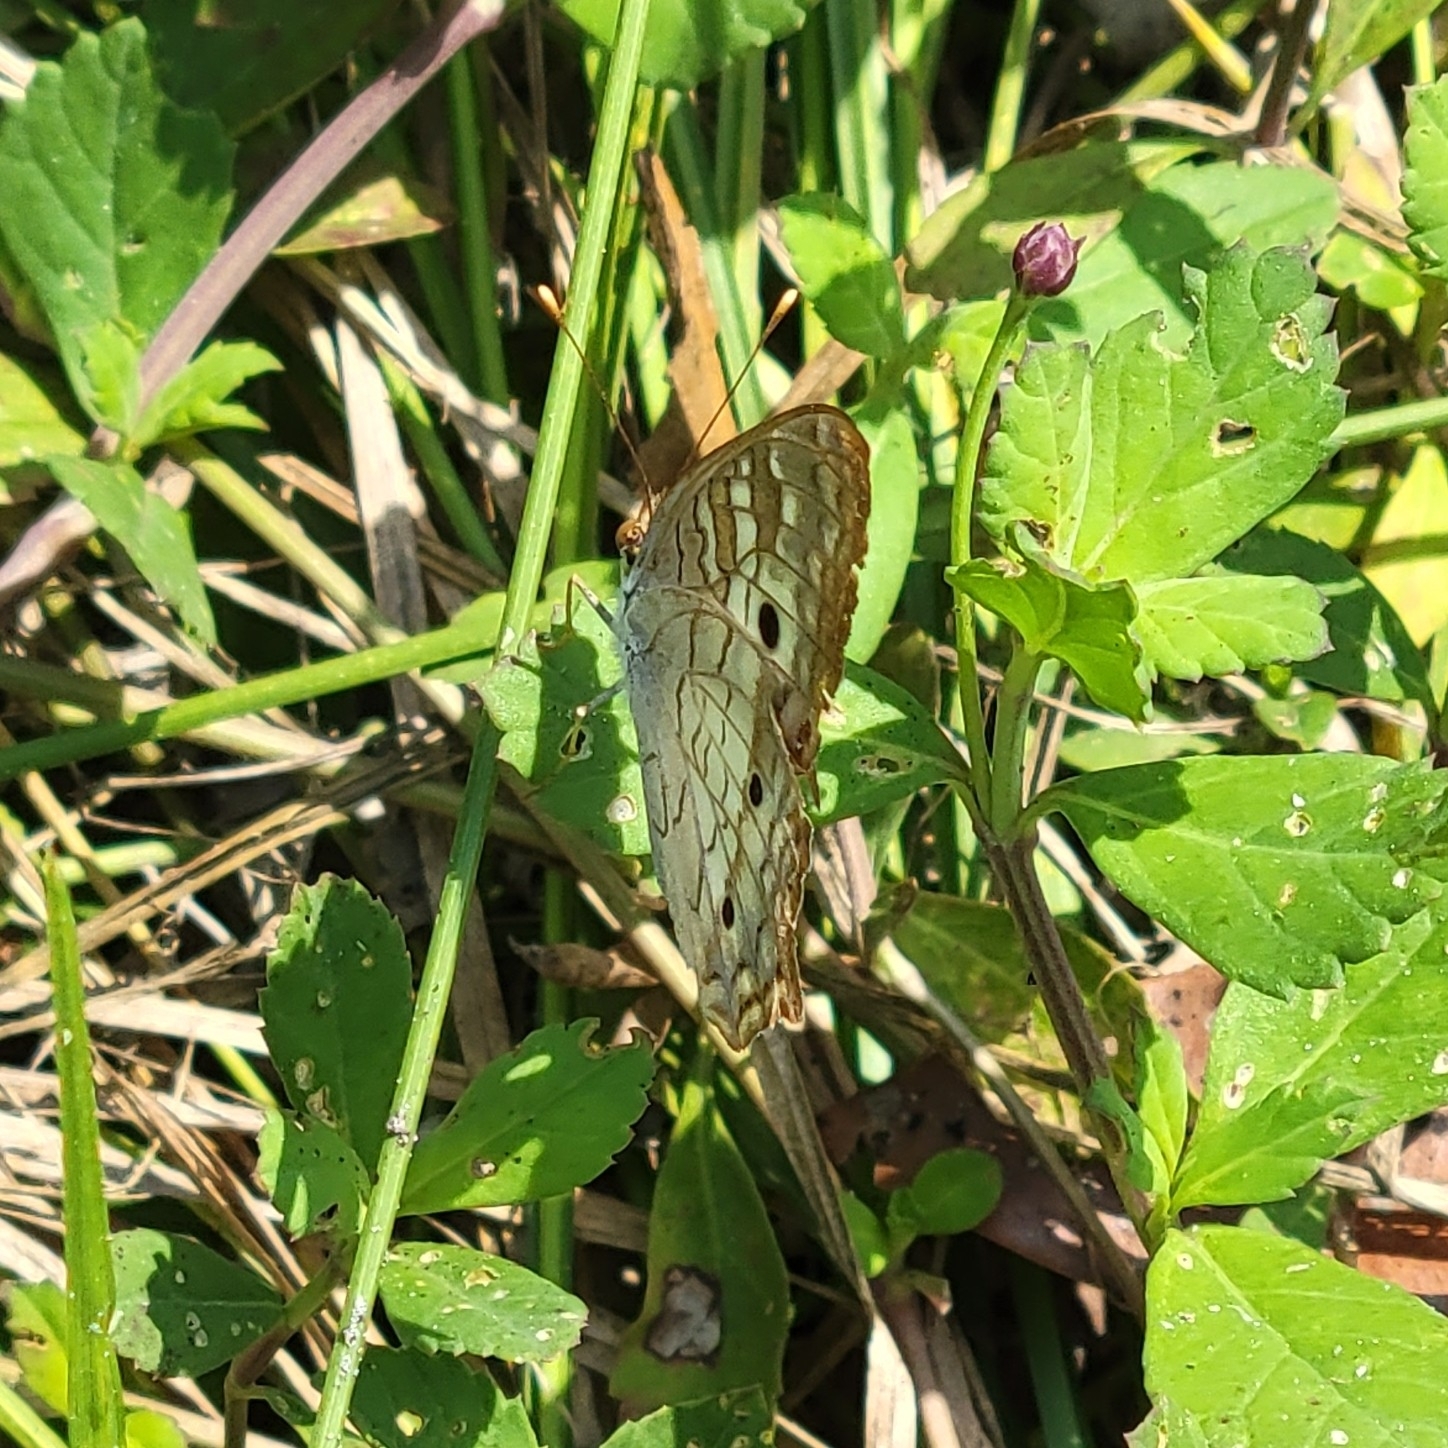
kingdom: Animalia
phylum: Arthropoda
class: Insecta
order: Lepidoptera
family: Nymphalidae
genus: Anartia
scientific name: Anartia jatrophae
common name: White peacock
